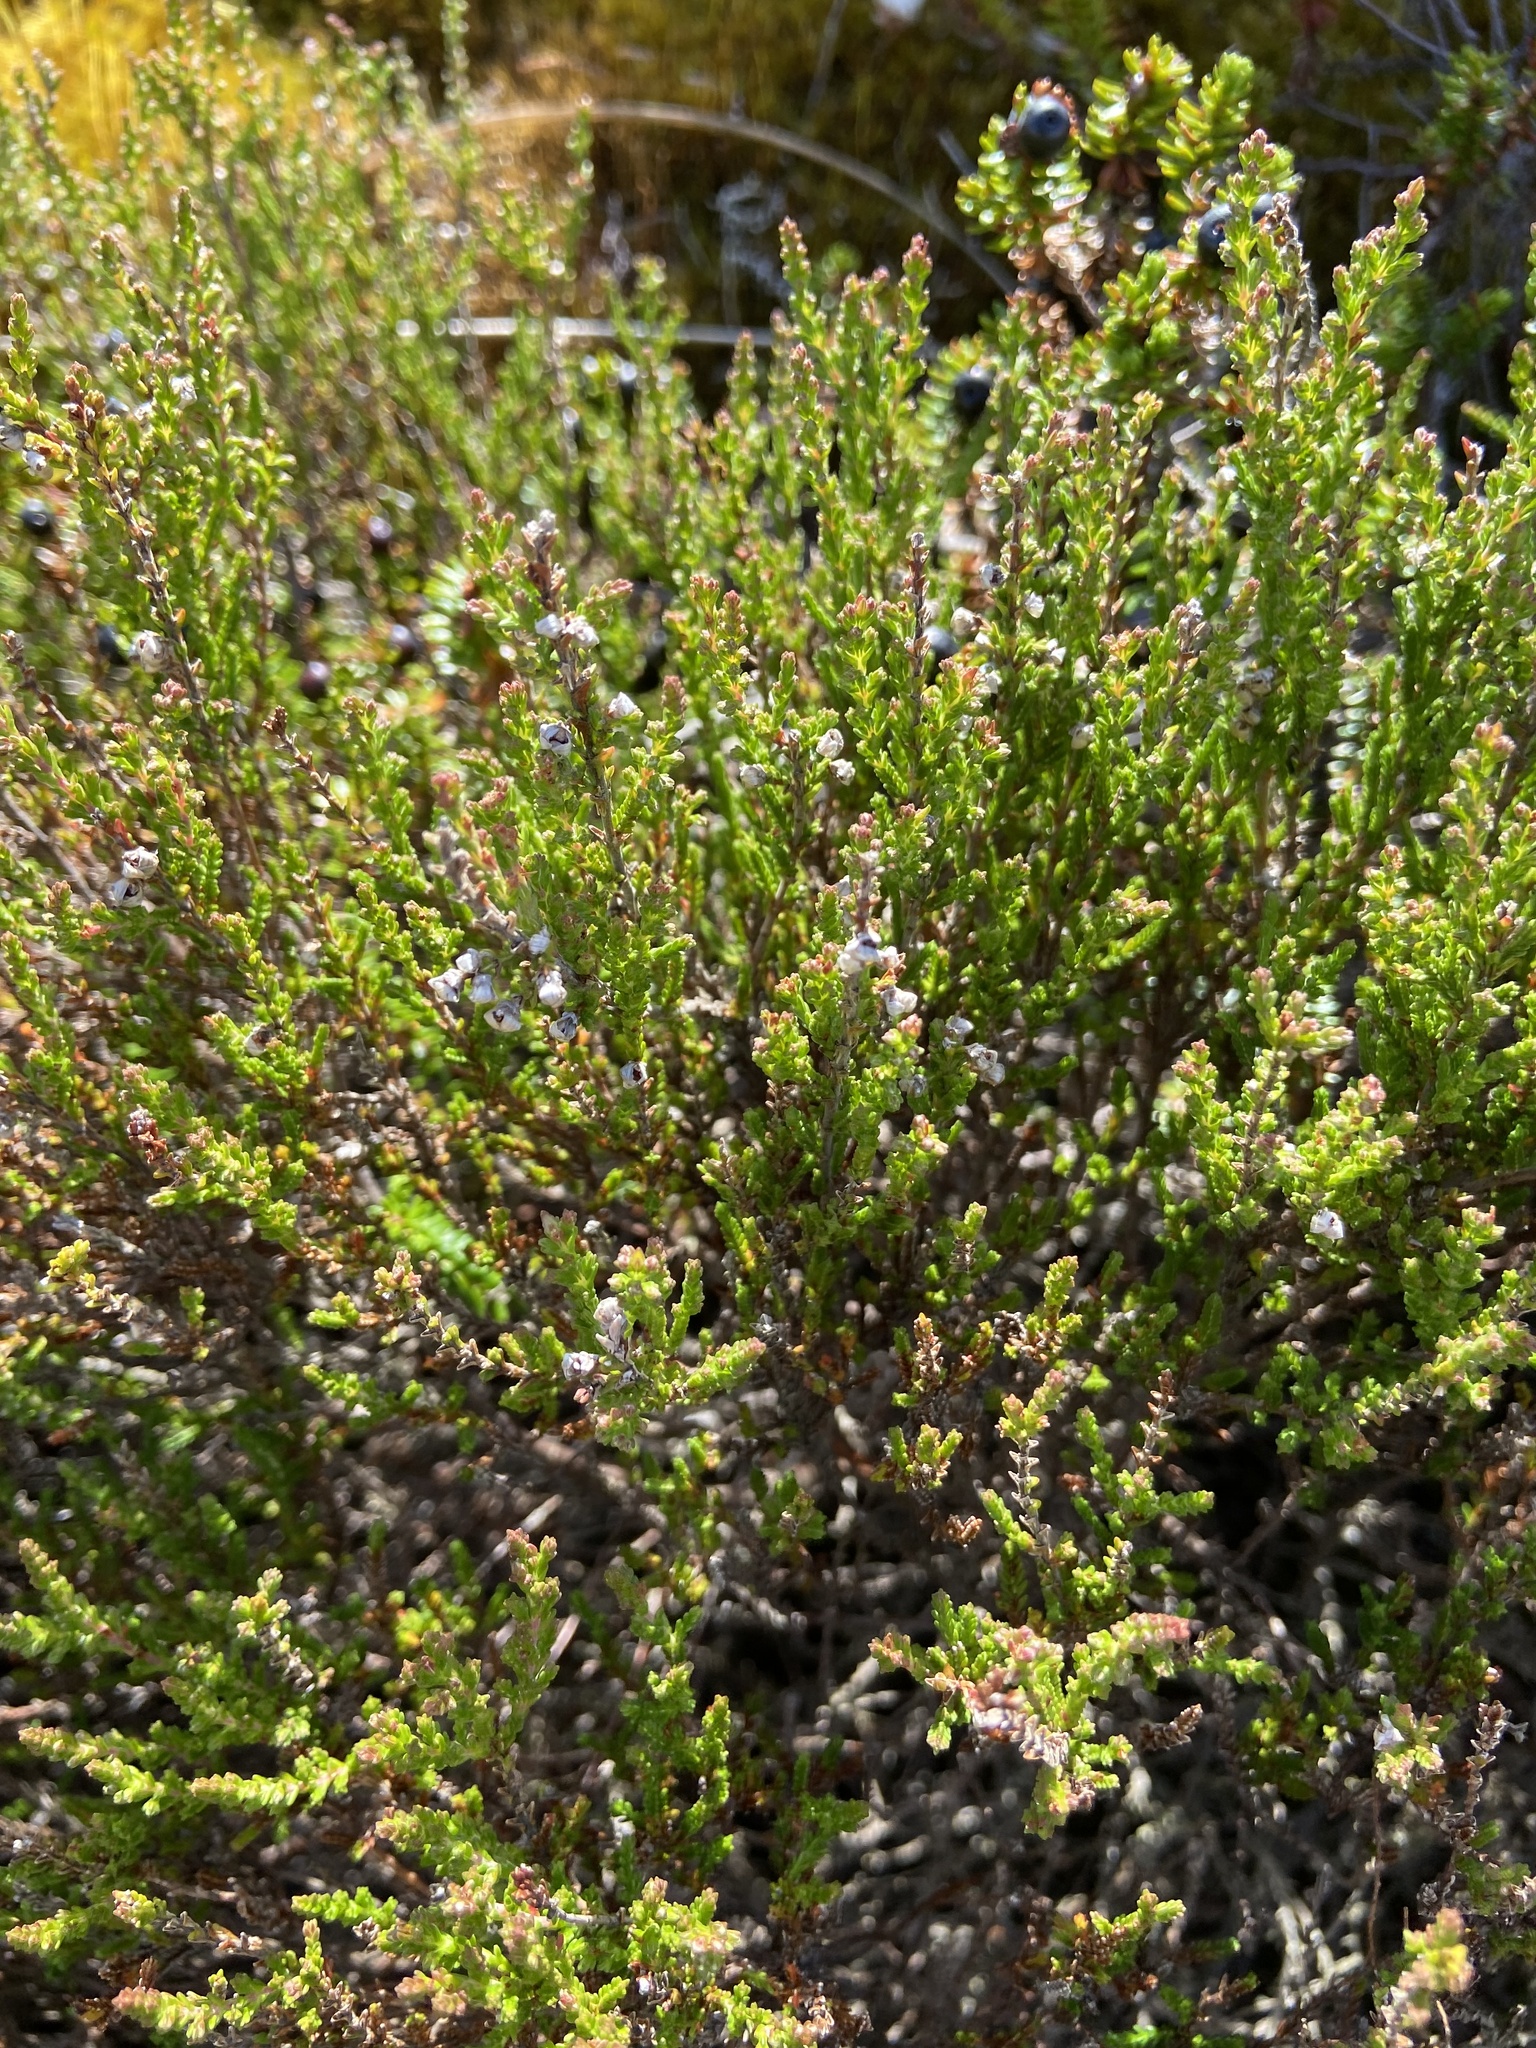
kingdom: Plantae
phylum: Tracheophyta
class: Magnoliopsida
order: Ericales
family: Ericaceae
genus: Calluna
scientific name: Calluna vulgaris
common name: Heather
